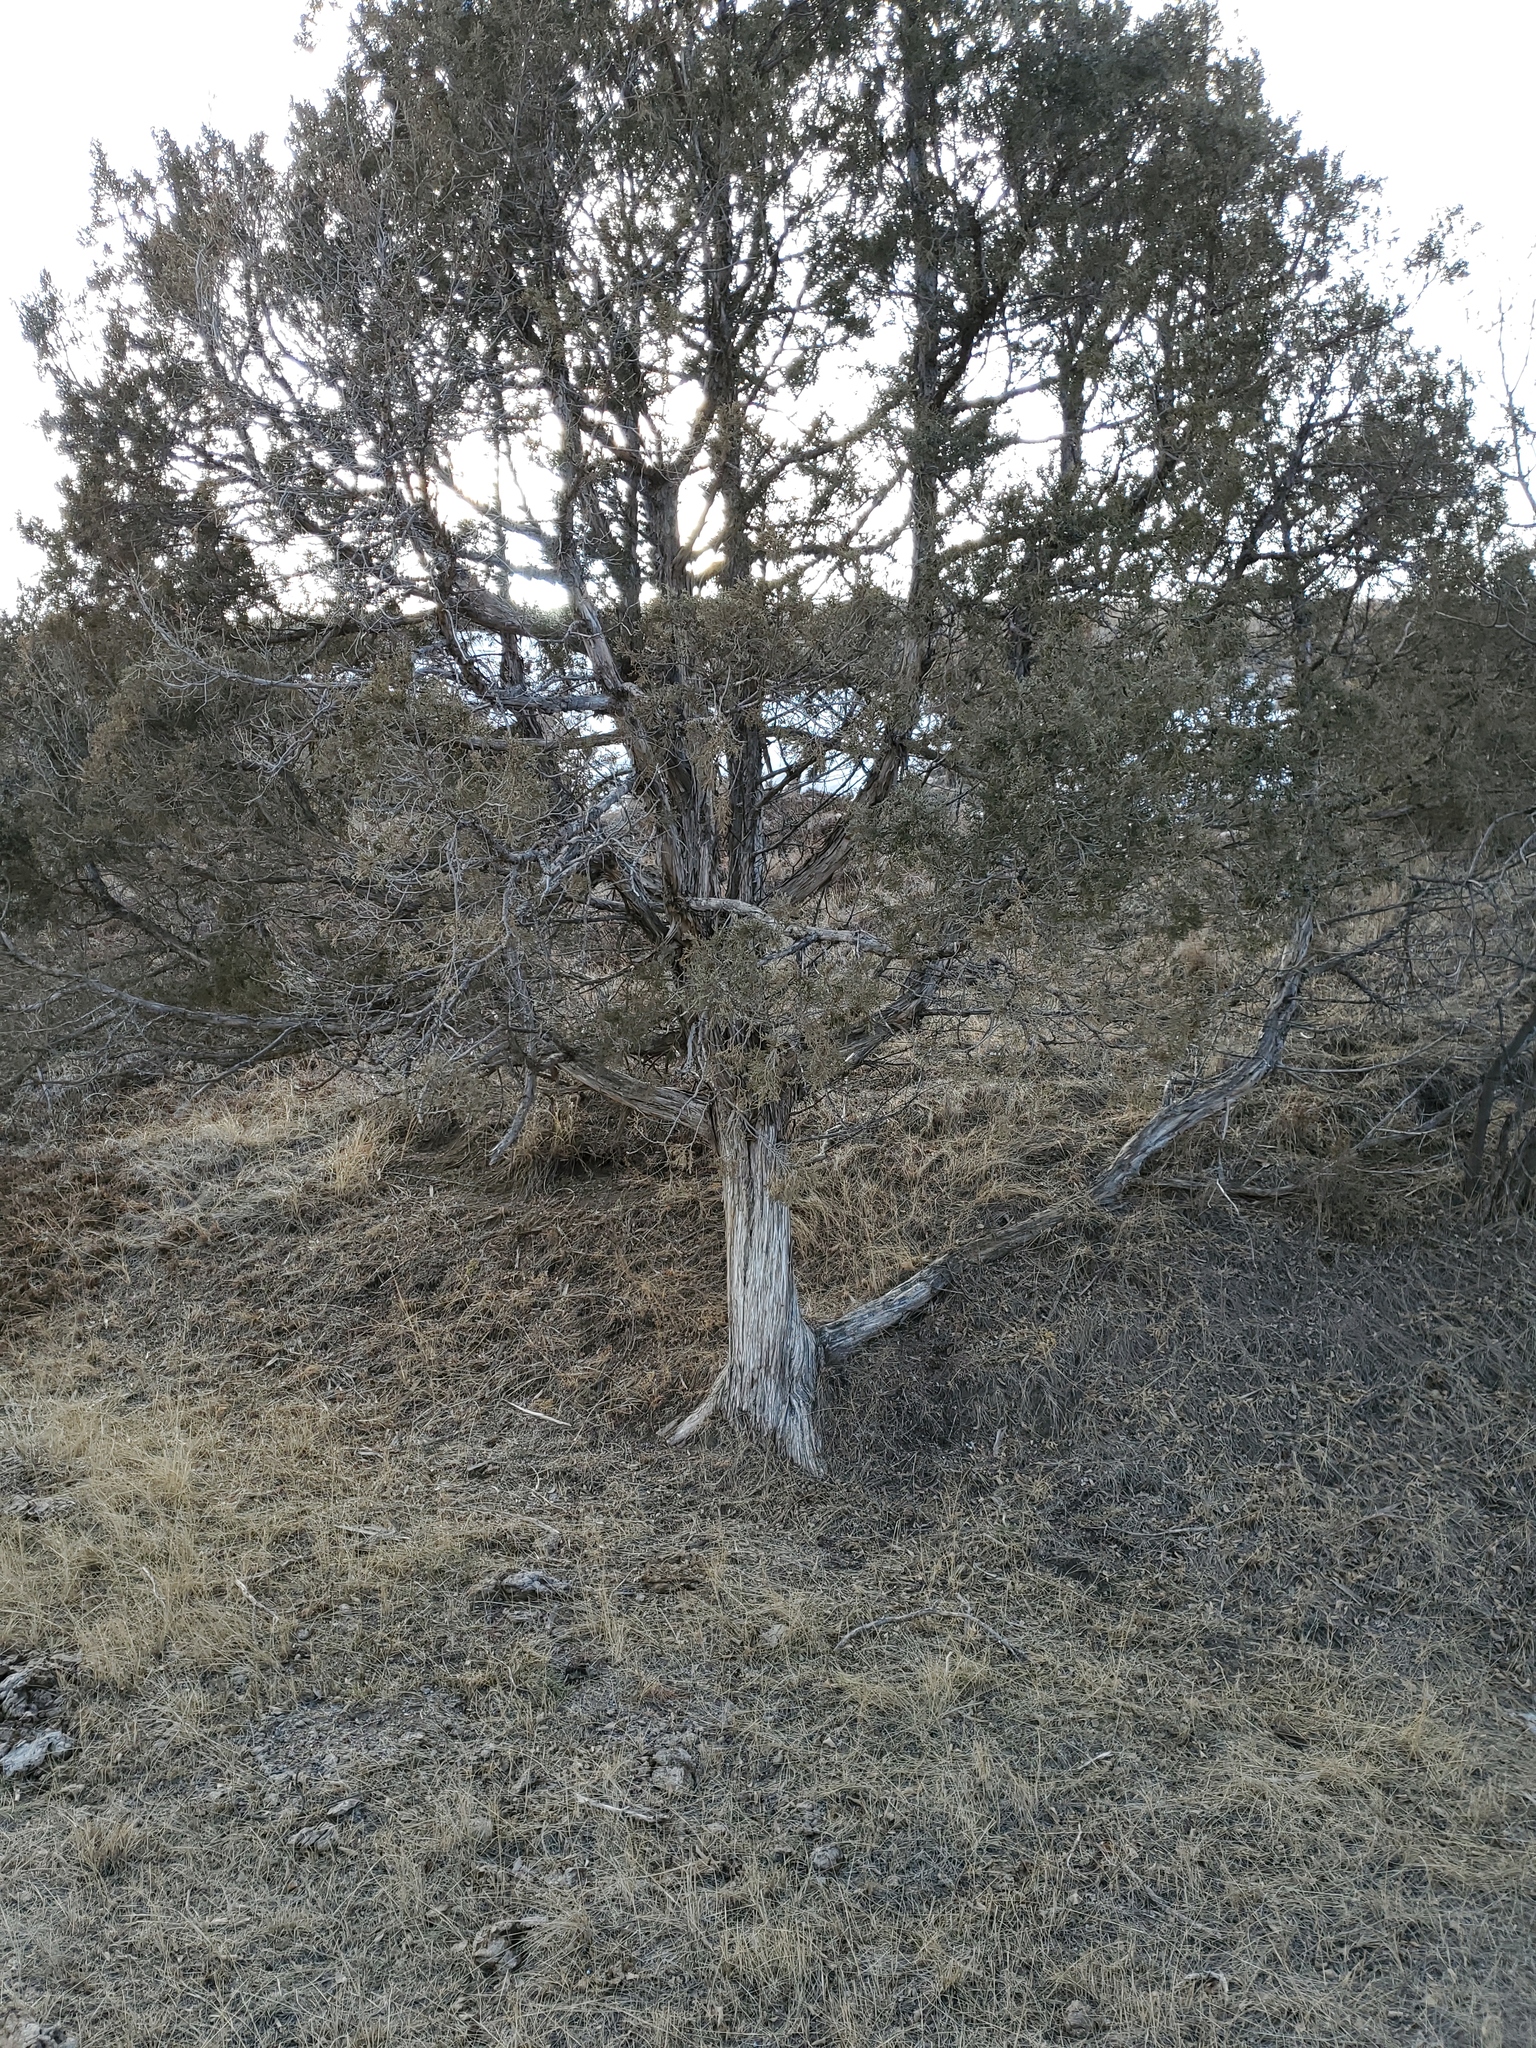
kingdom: Plantae
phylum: Tracheophyta
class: Pinopsida
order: Pinales
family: Cupressaceae
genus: Juniperus
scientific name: Juniperus scopulorum
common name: Rocky mountain juniper
